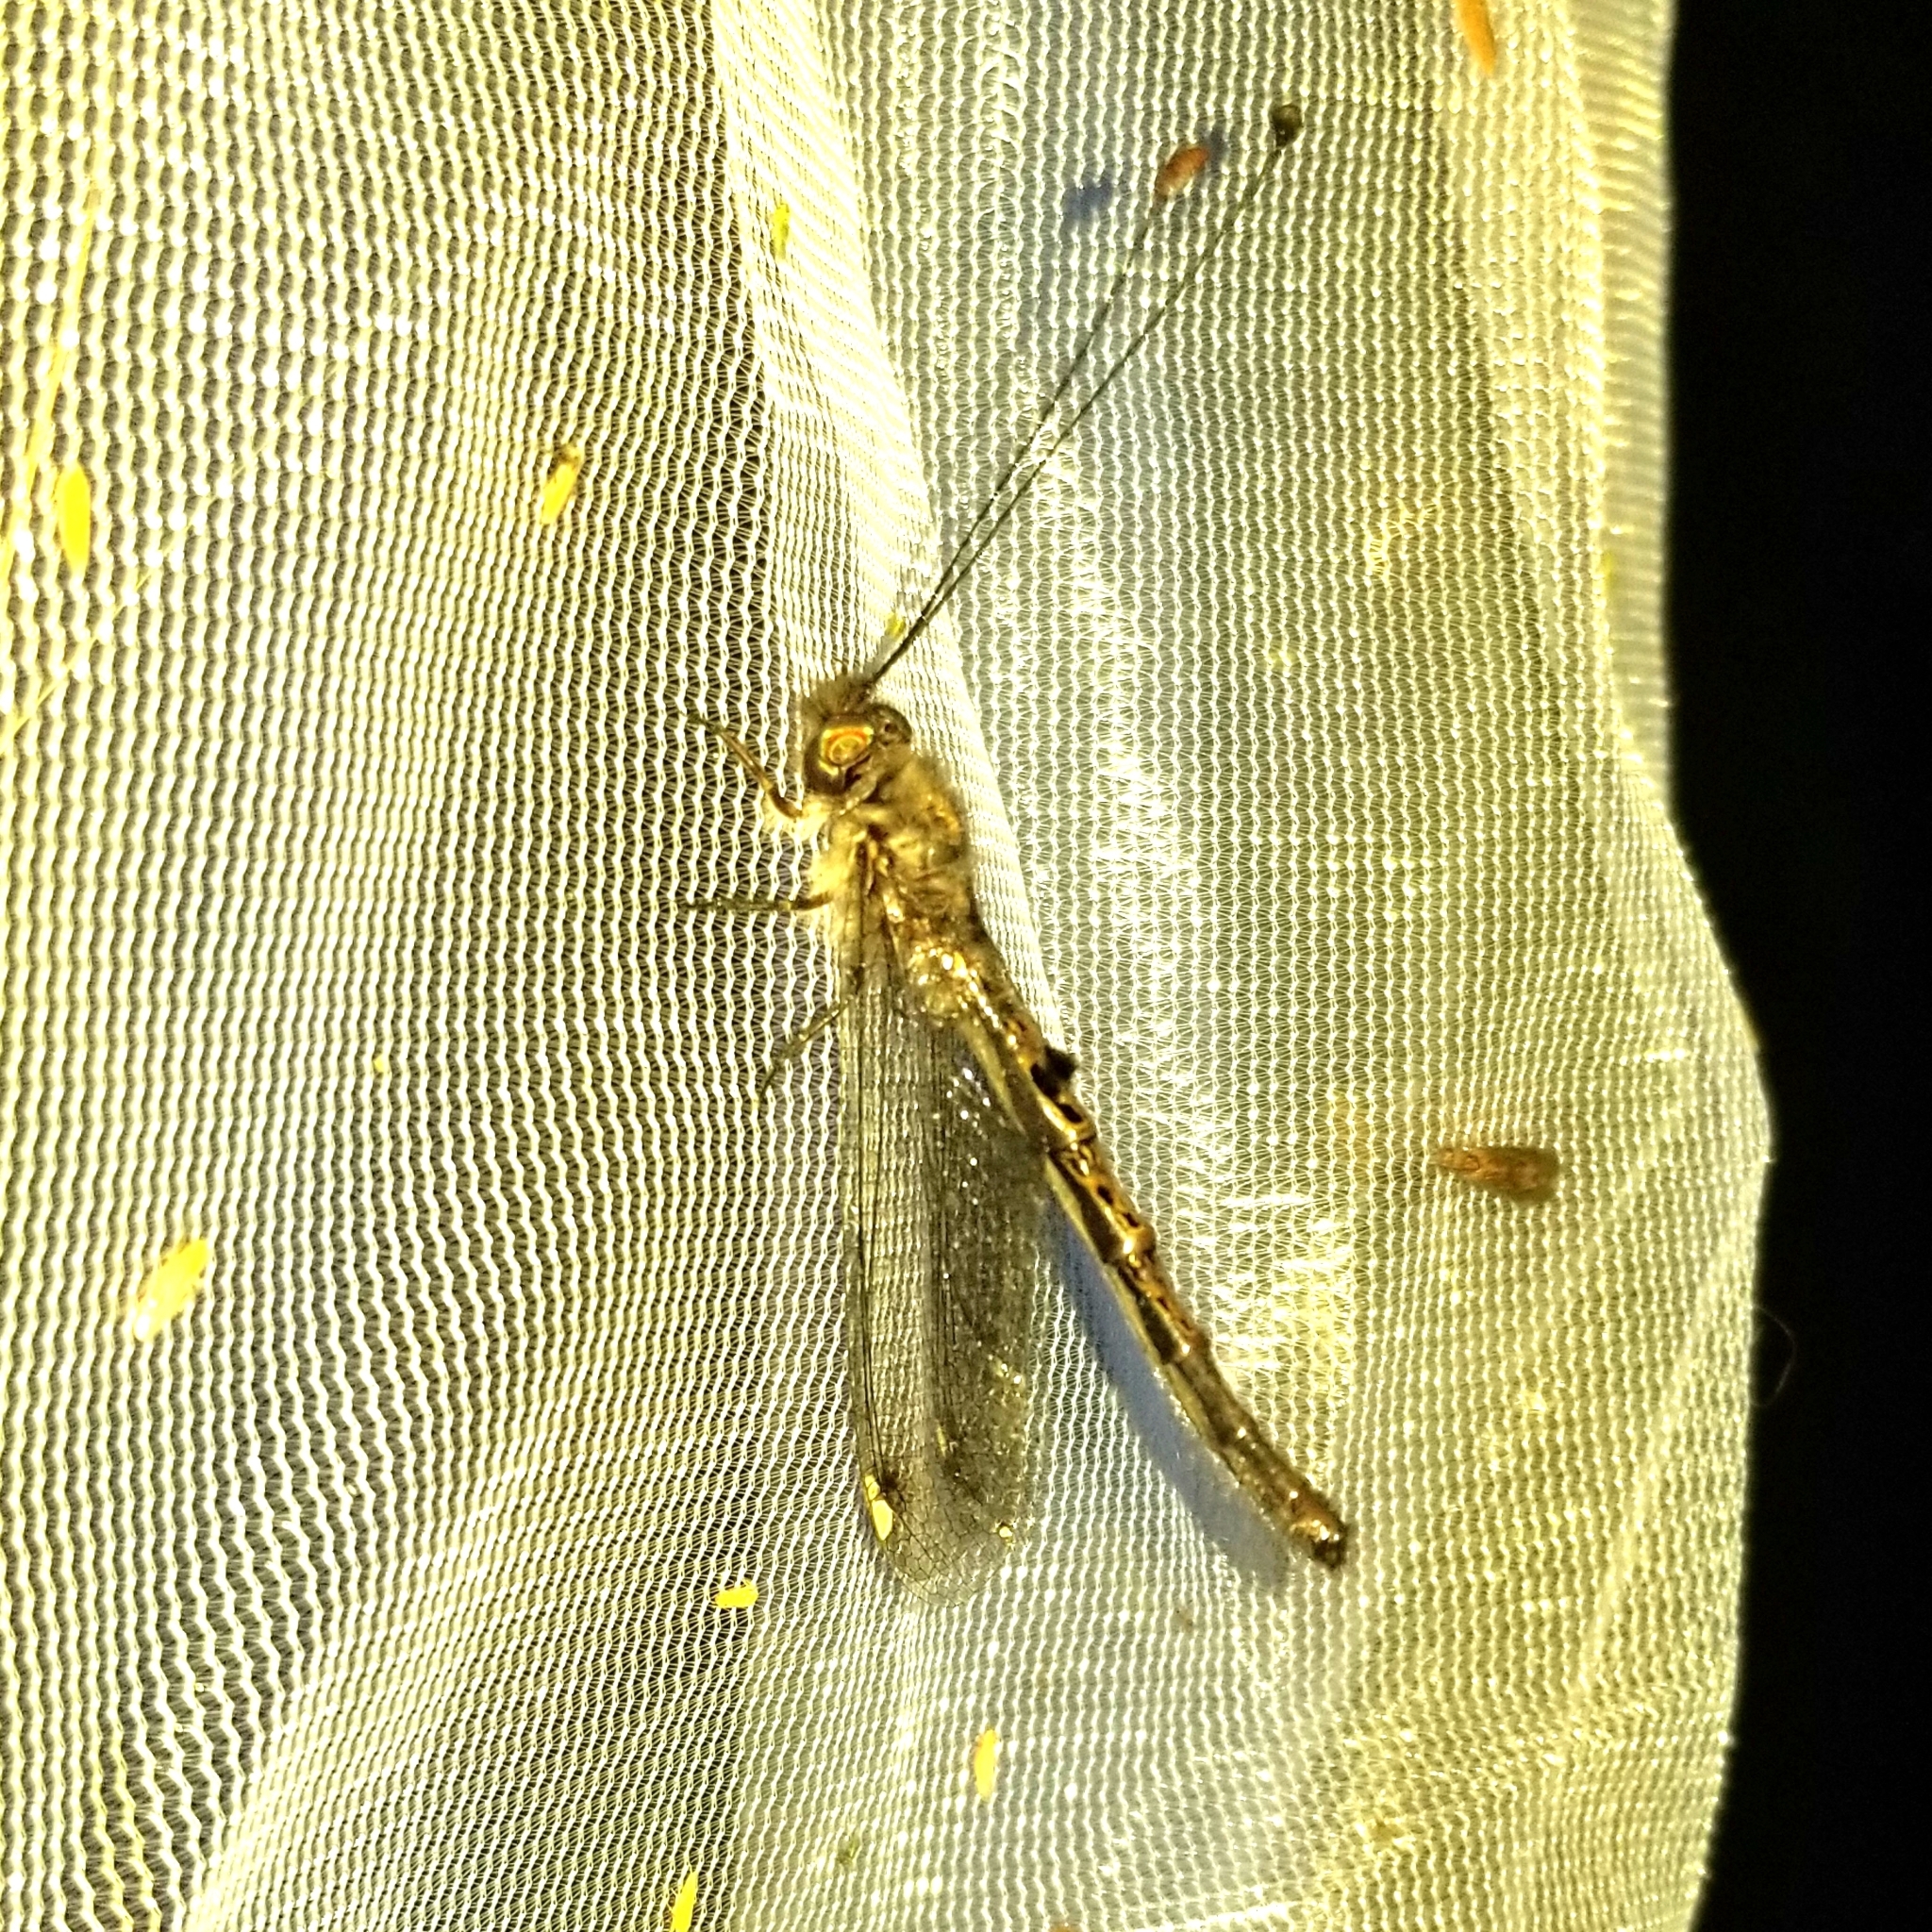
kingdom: Animalia
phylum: Arthropoda
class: Insecta
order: Neuroptera
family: Ascalaphidae
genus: Ululodes
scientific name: Ululodes quadripunctatus
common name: Four-spotted owlfly
